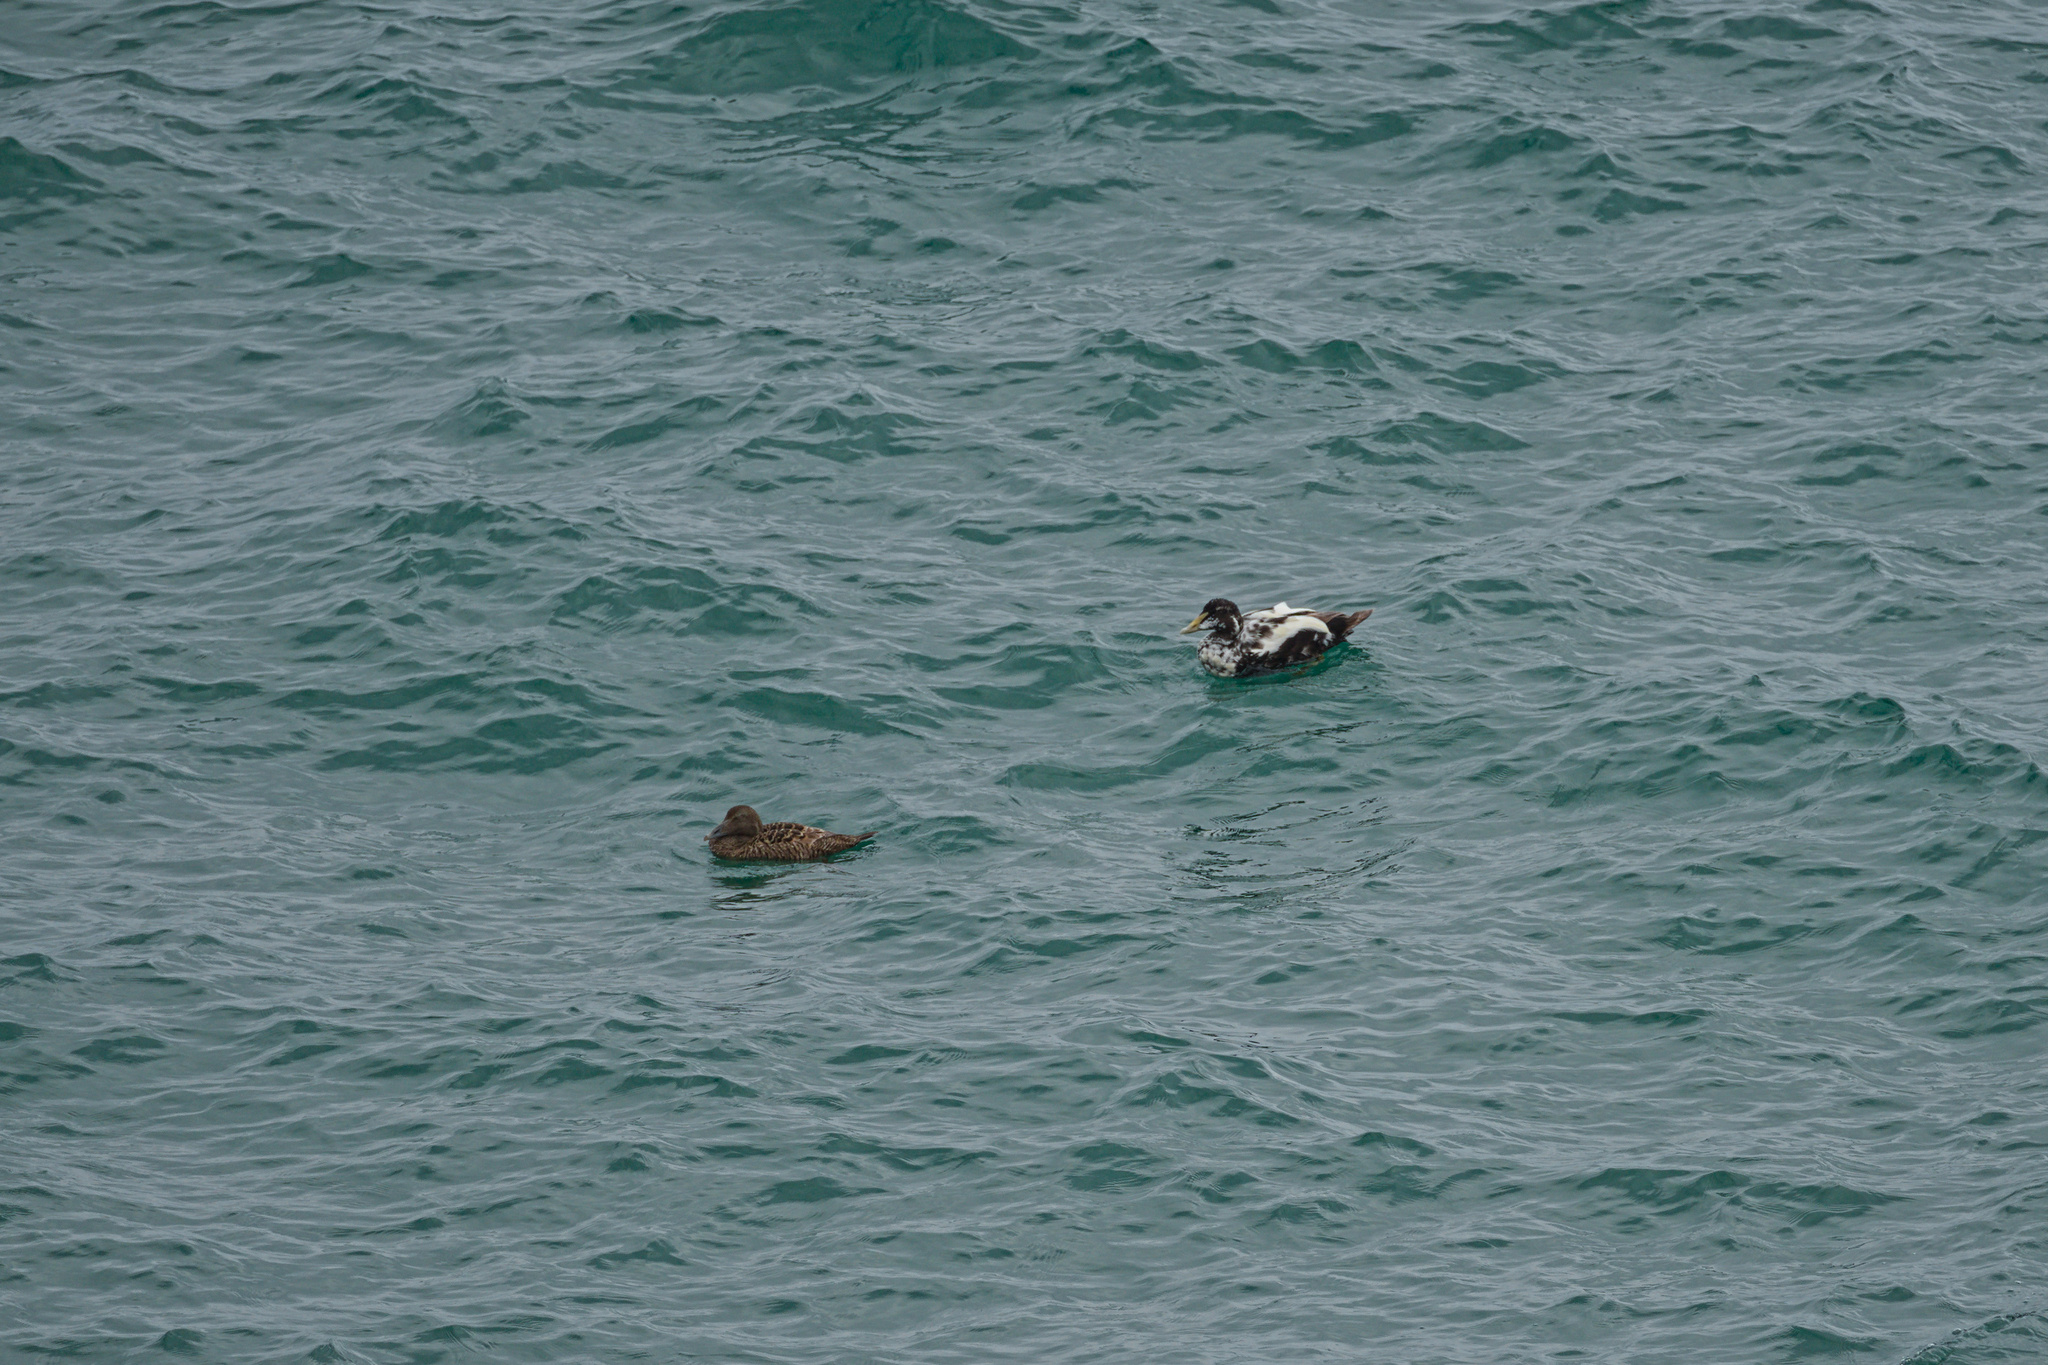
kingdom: Animalia
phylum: Chordata
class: Aves
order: Anseriformes
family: Anatidae
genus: Somateria
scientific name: Somateria mollissima
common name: Common eider
